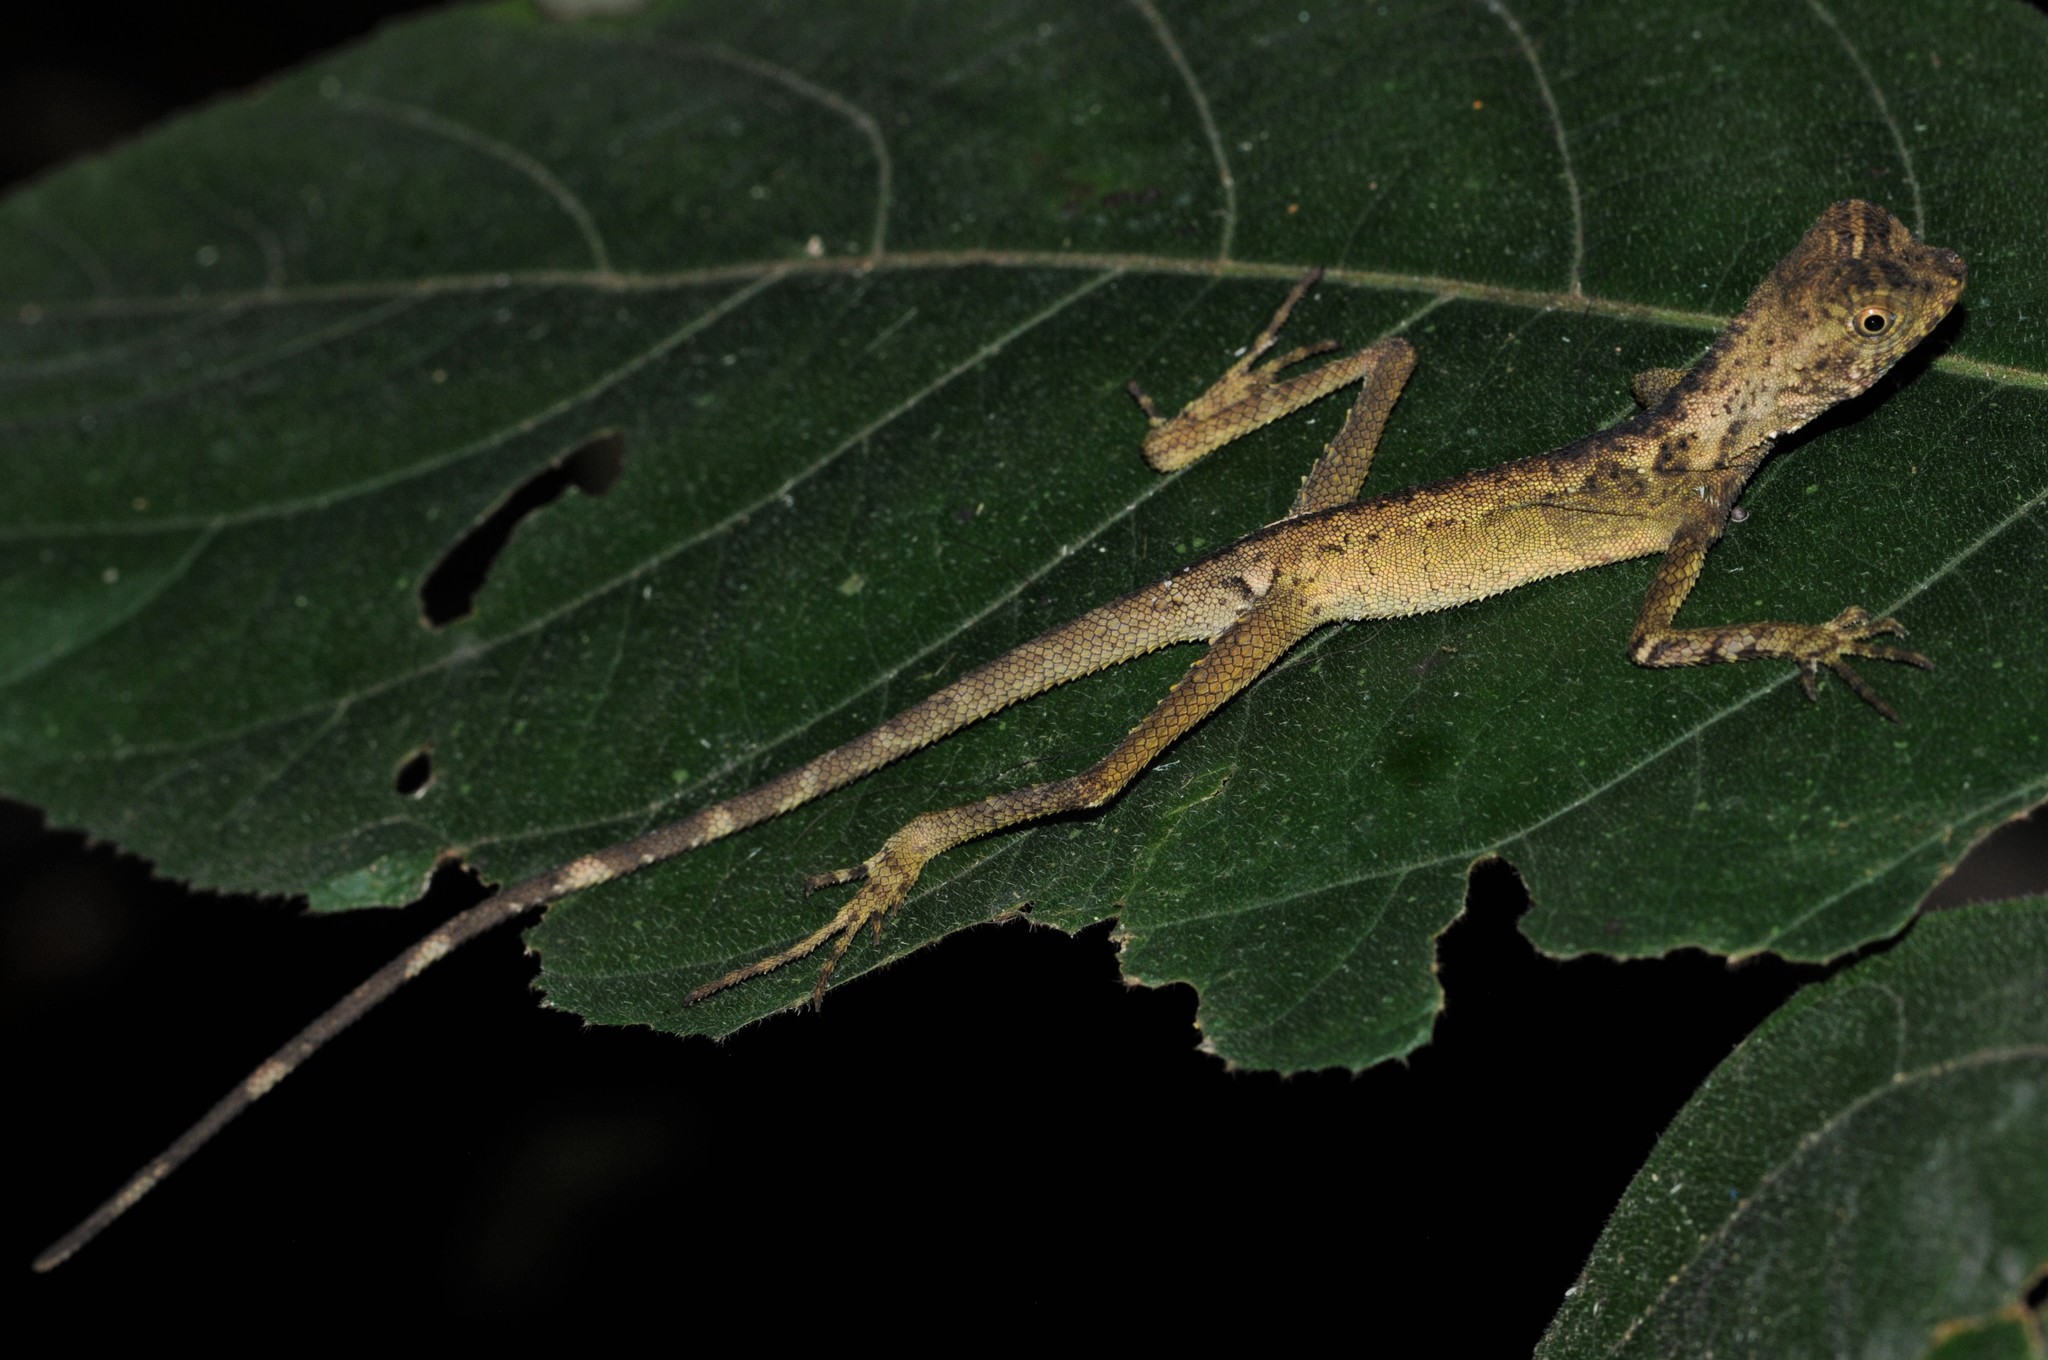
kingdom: Animalia
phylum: Chordata
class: Squamata
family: Agamidae
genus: Aphaniotis
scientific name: Aphaniotis fusca
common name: Dusky earless agama
